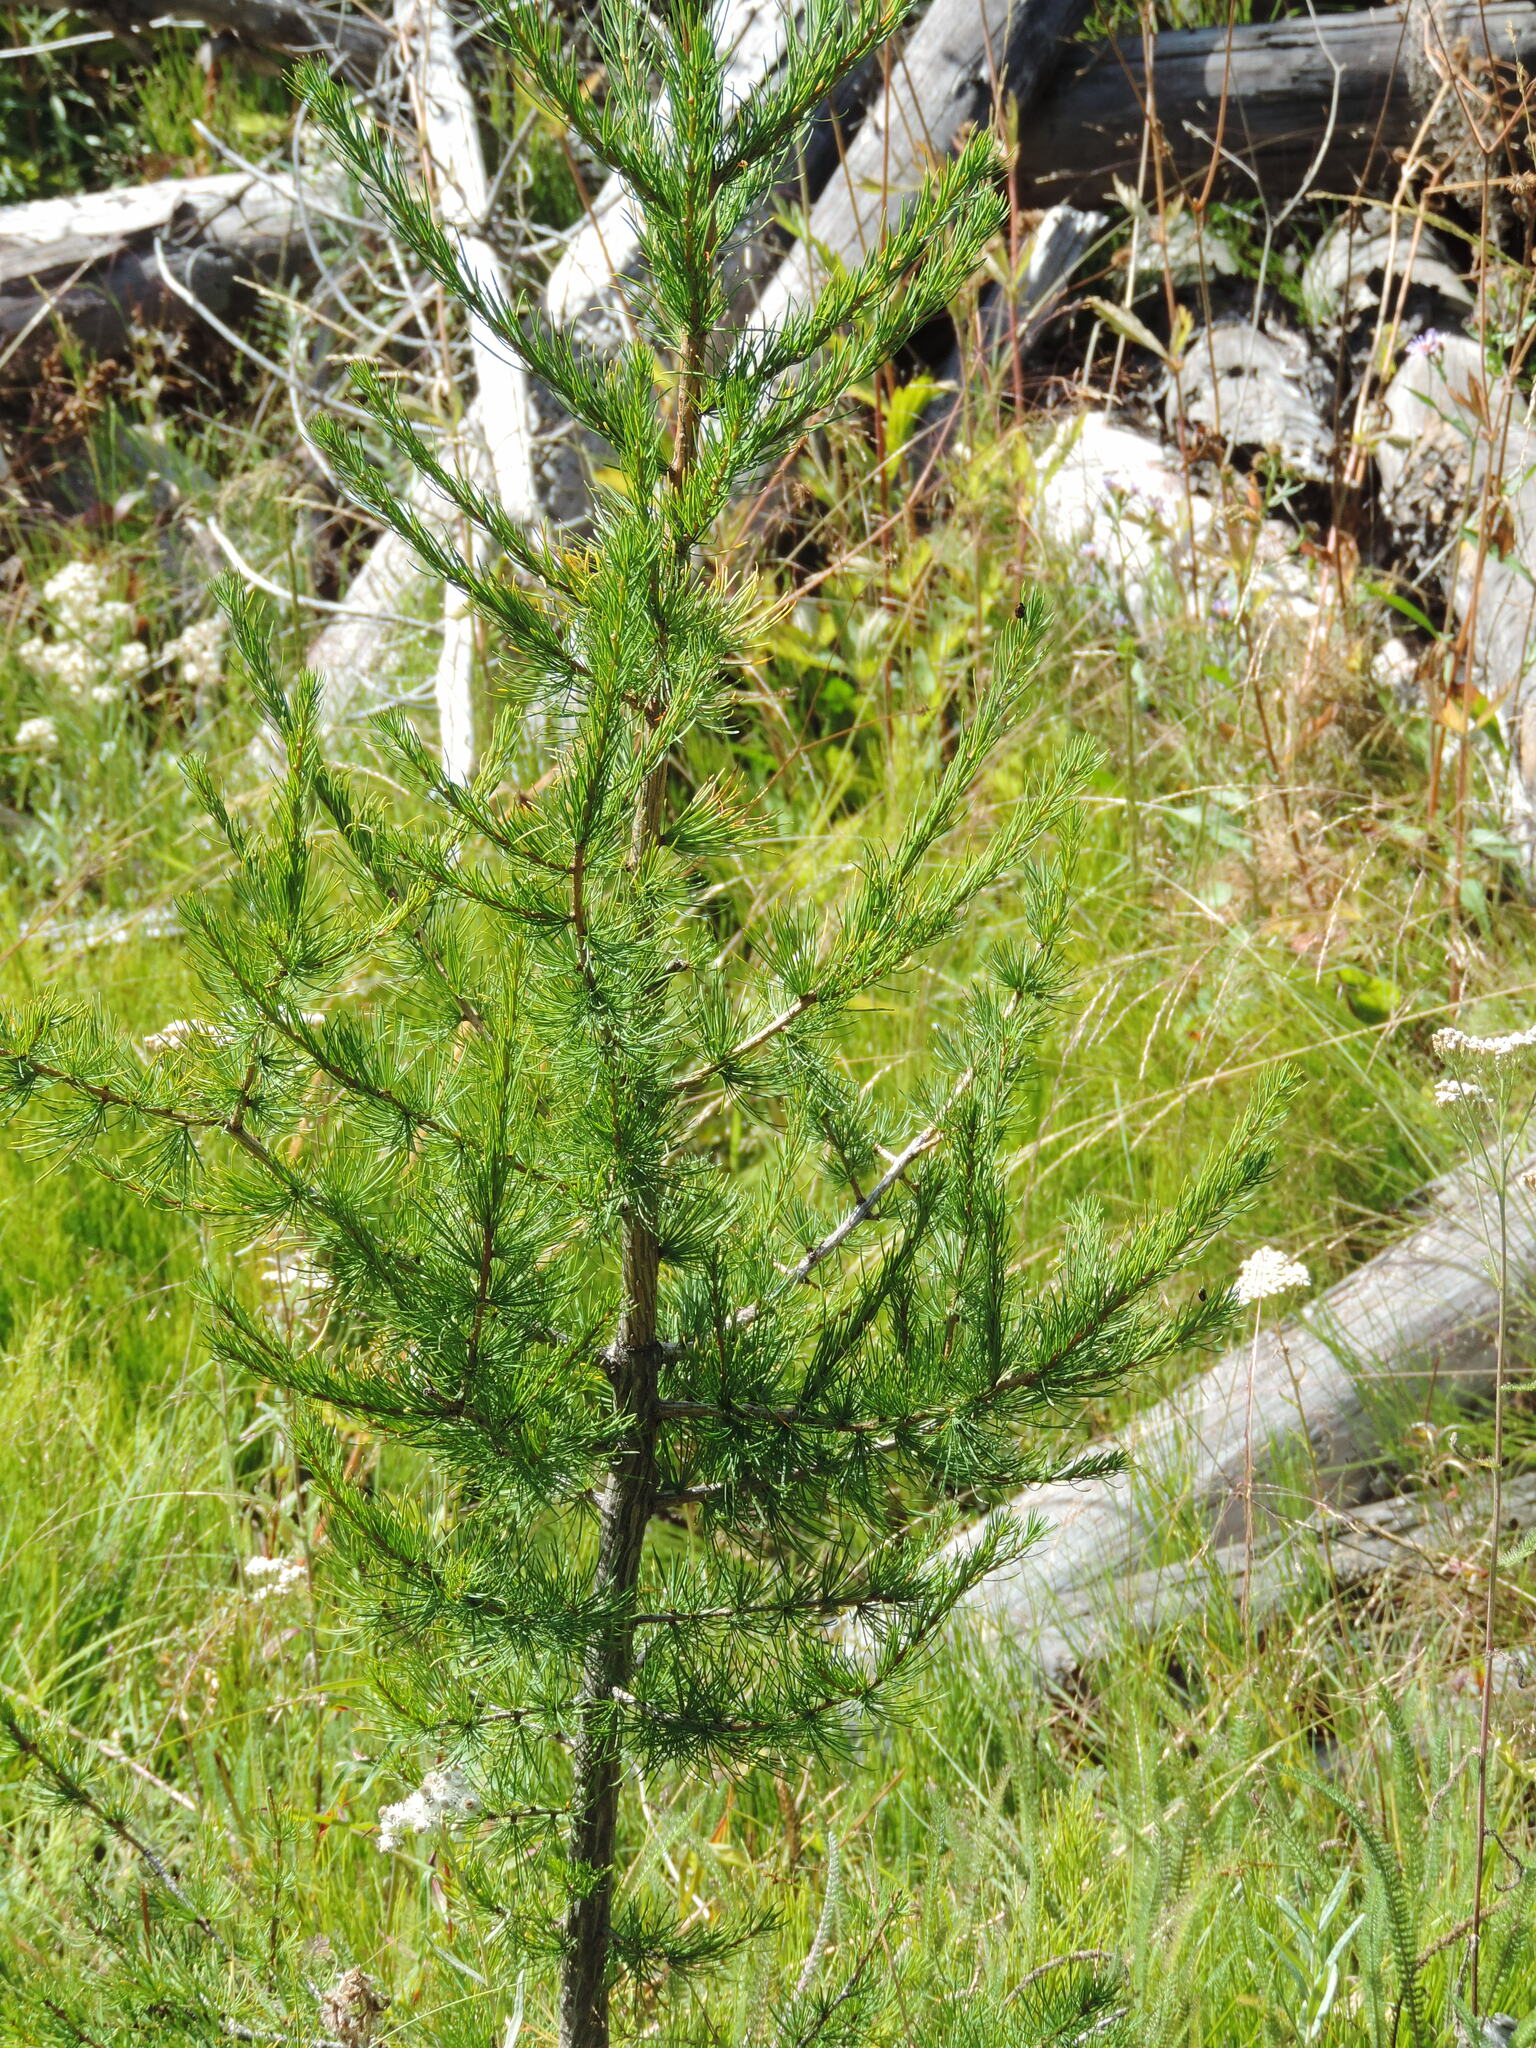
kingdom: Plantae
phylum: Tracheophyta
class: Pinopsida
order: Pinales
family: Pinaceae
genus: Larix
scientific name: Larix occidentalis
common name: Western larch
